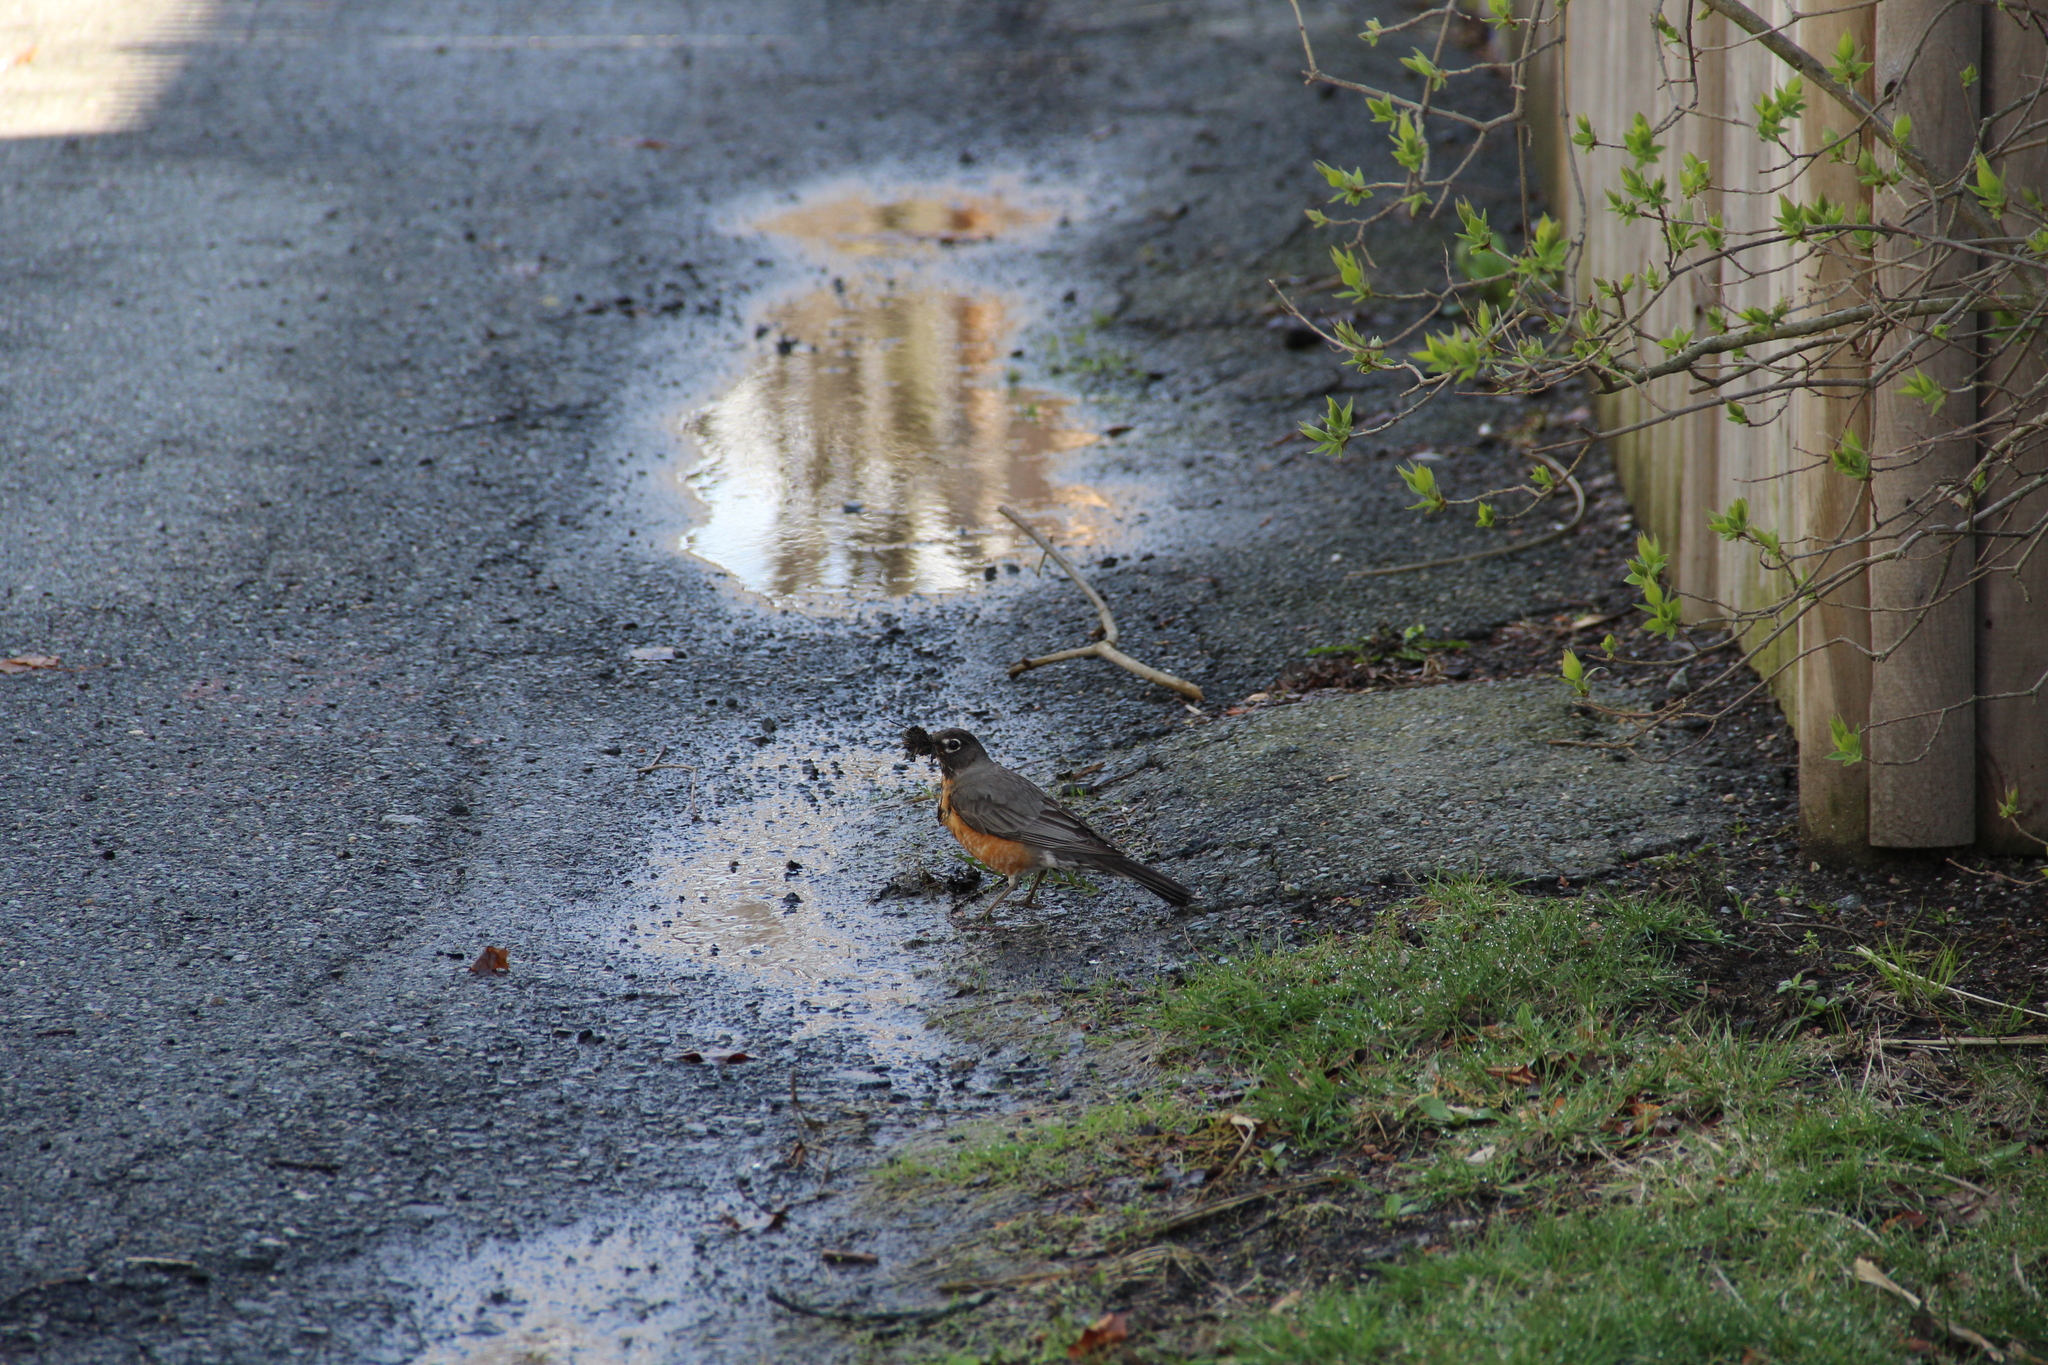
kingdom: Animalia
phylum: Chordata
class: Aves
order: Passeriformes
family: Turdidae
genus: Turdus
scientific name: Turdus migratorius
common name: American robin
